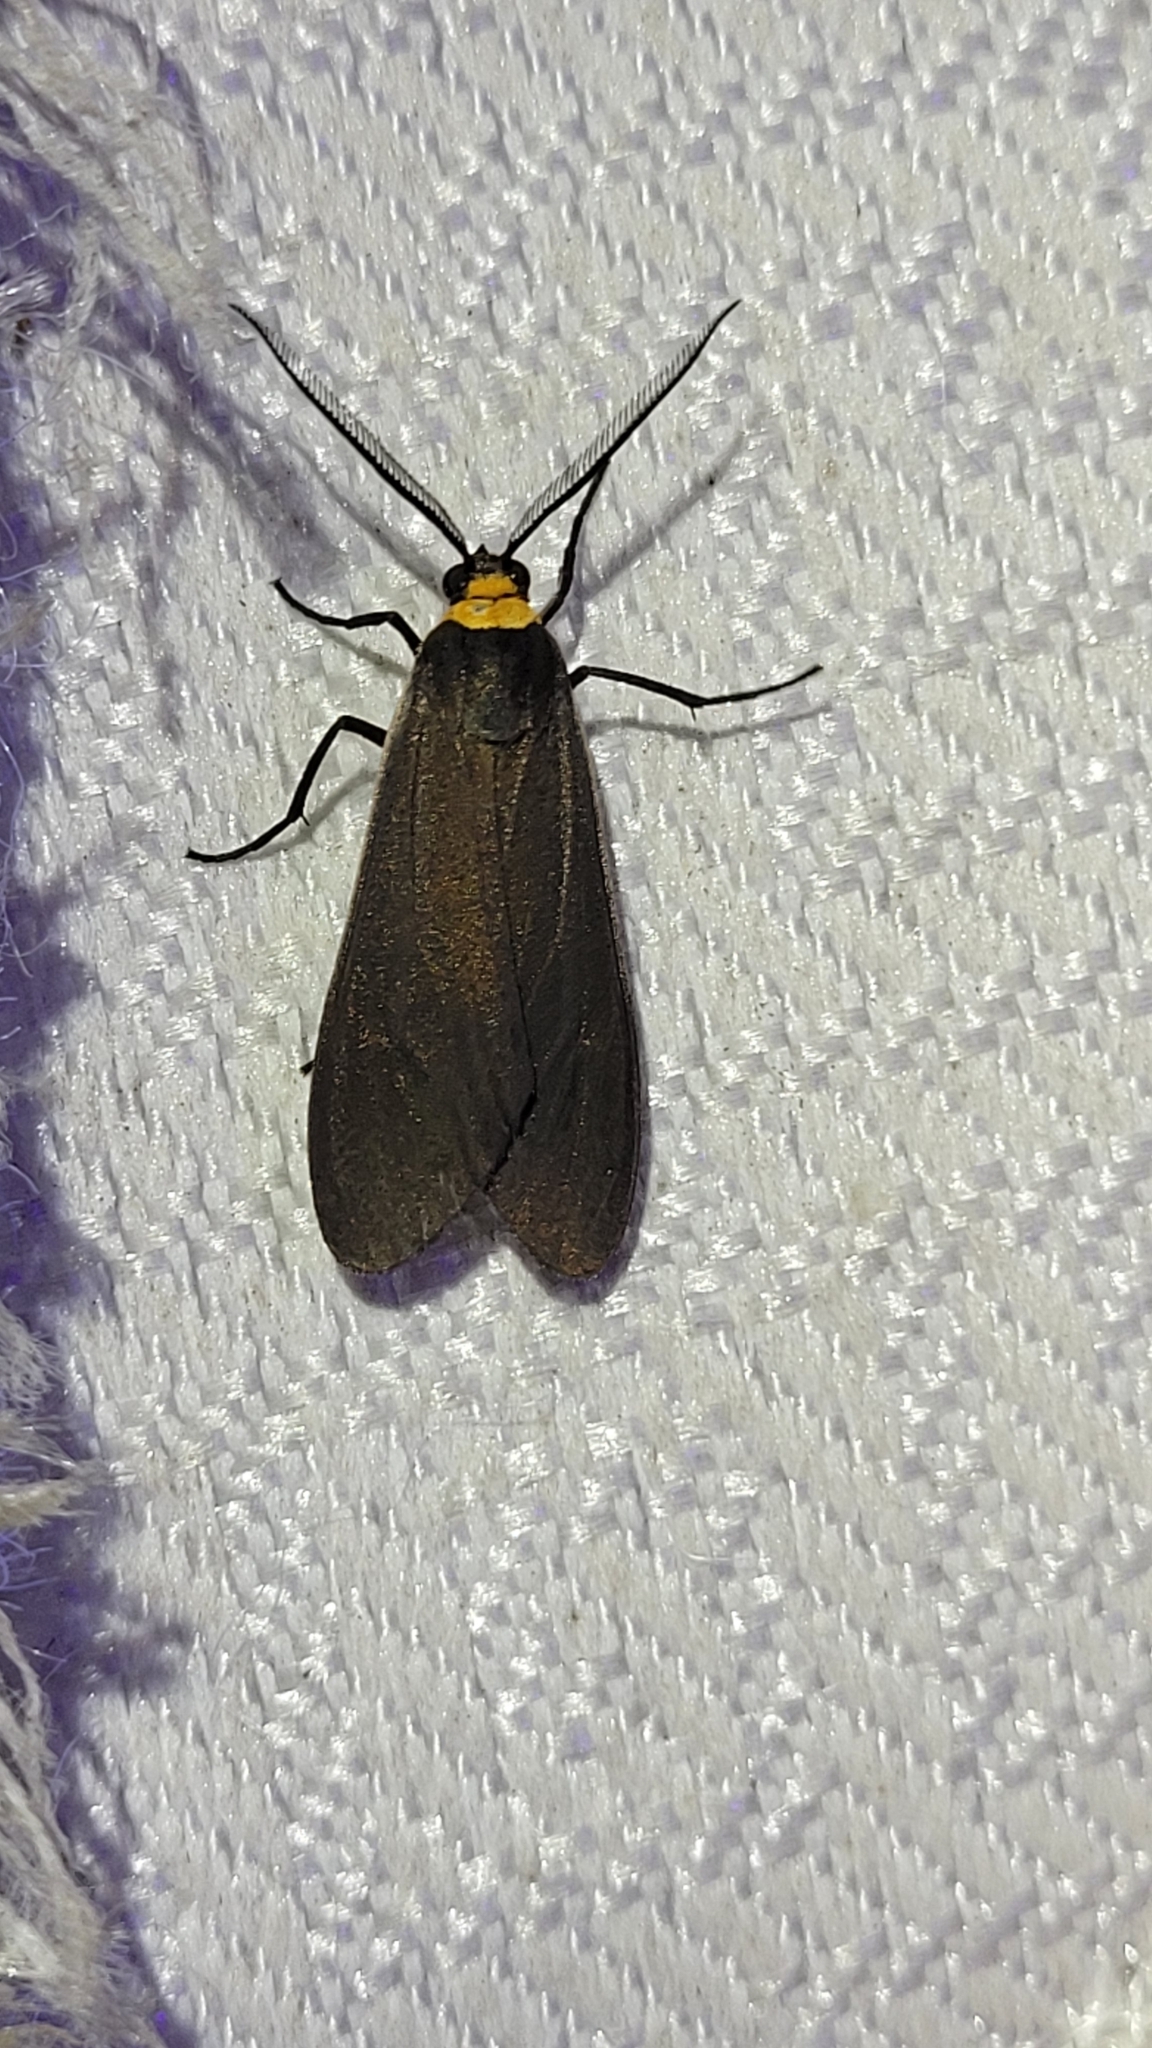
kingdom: Animalia
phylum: Arthropoda
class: Insecta
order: Lepidoptera
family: Erebidae
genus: Cisseps
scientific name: Cisseps fulvicollis
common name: Yellow-collared scape moth
